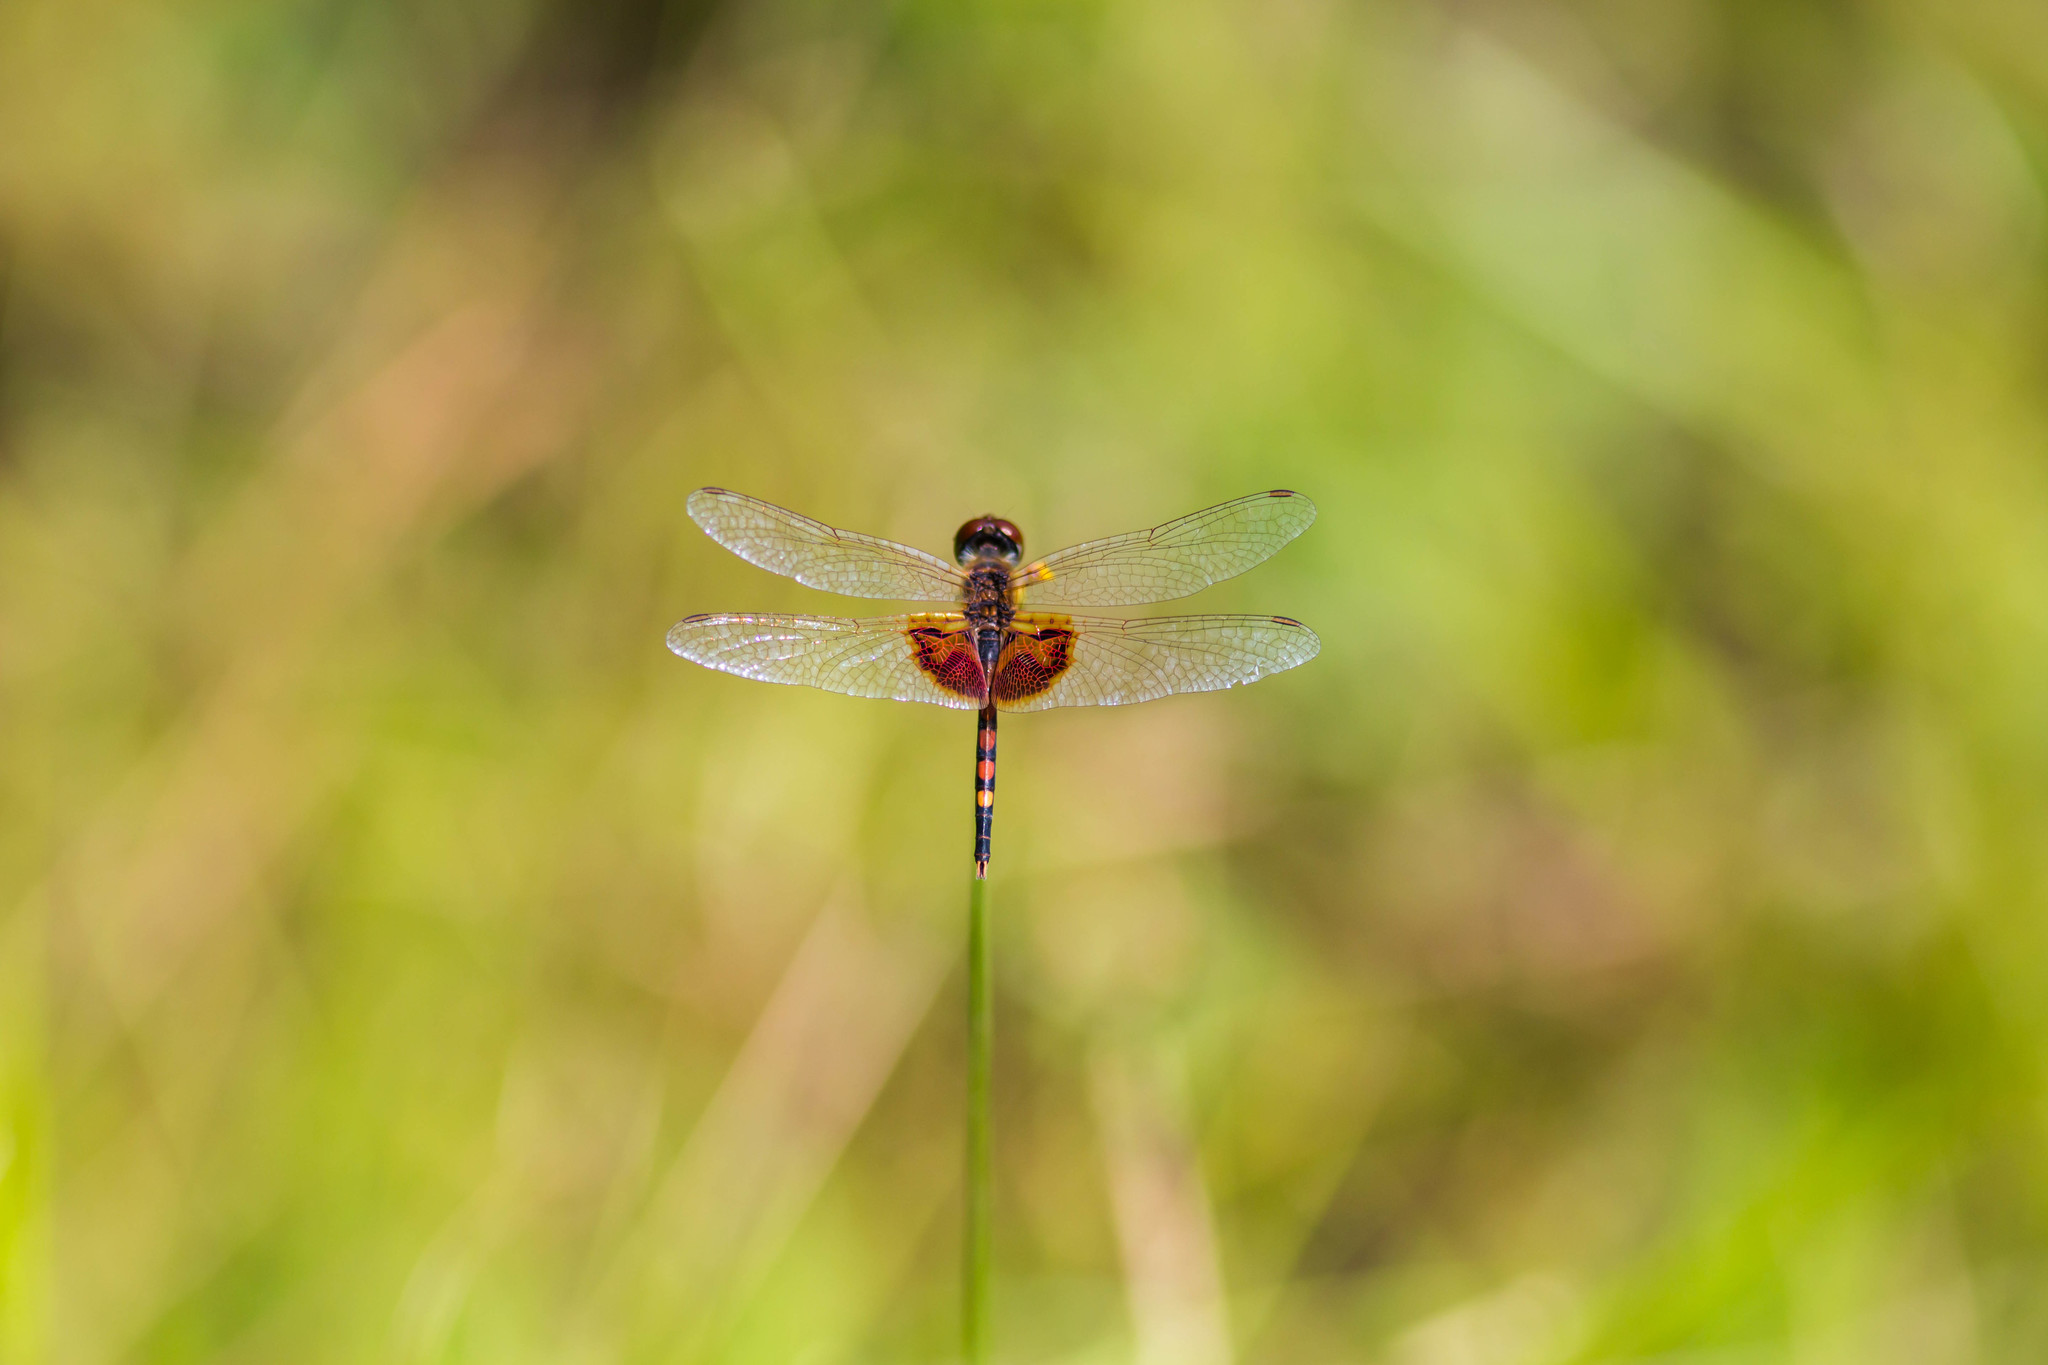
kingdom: Animalia
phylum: Arthropoda
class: Insecta
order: Odonata
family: Libellulidae
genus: Celithemis
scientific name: Celithemis amanda
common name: Amanda's pennant
